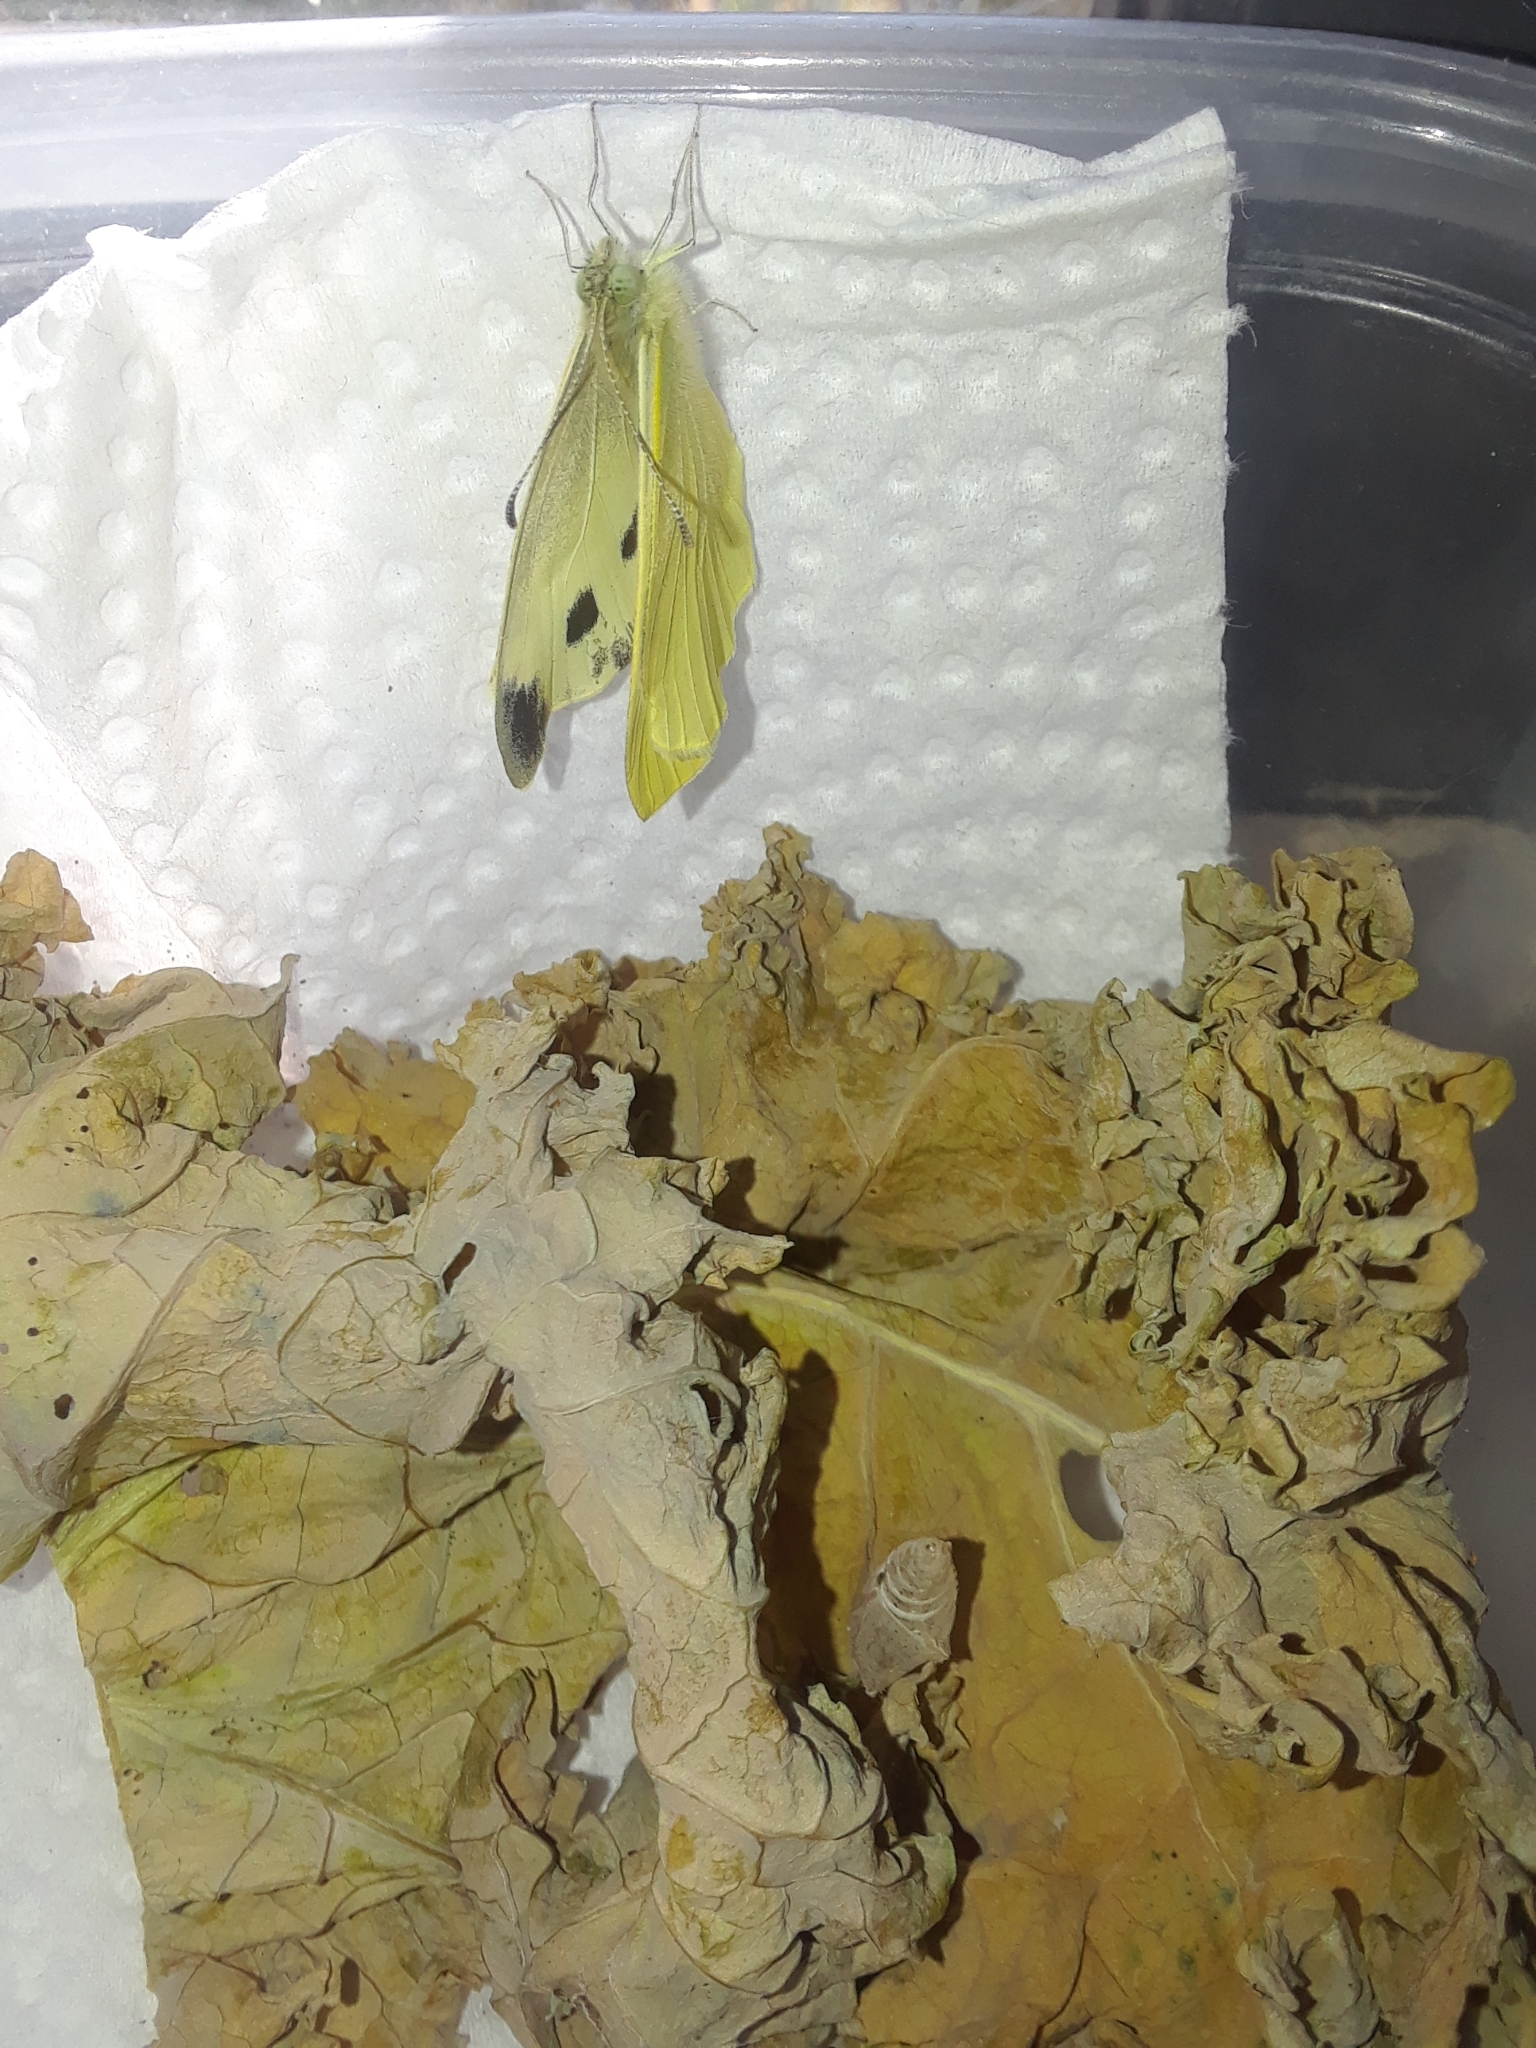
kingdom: Animalia
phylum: Arthropoda
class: Insecta
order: Lepidoptera
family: Pieridae
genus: Pieris
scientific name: Pieris rapae
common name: Small white
